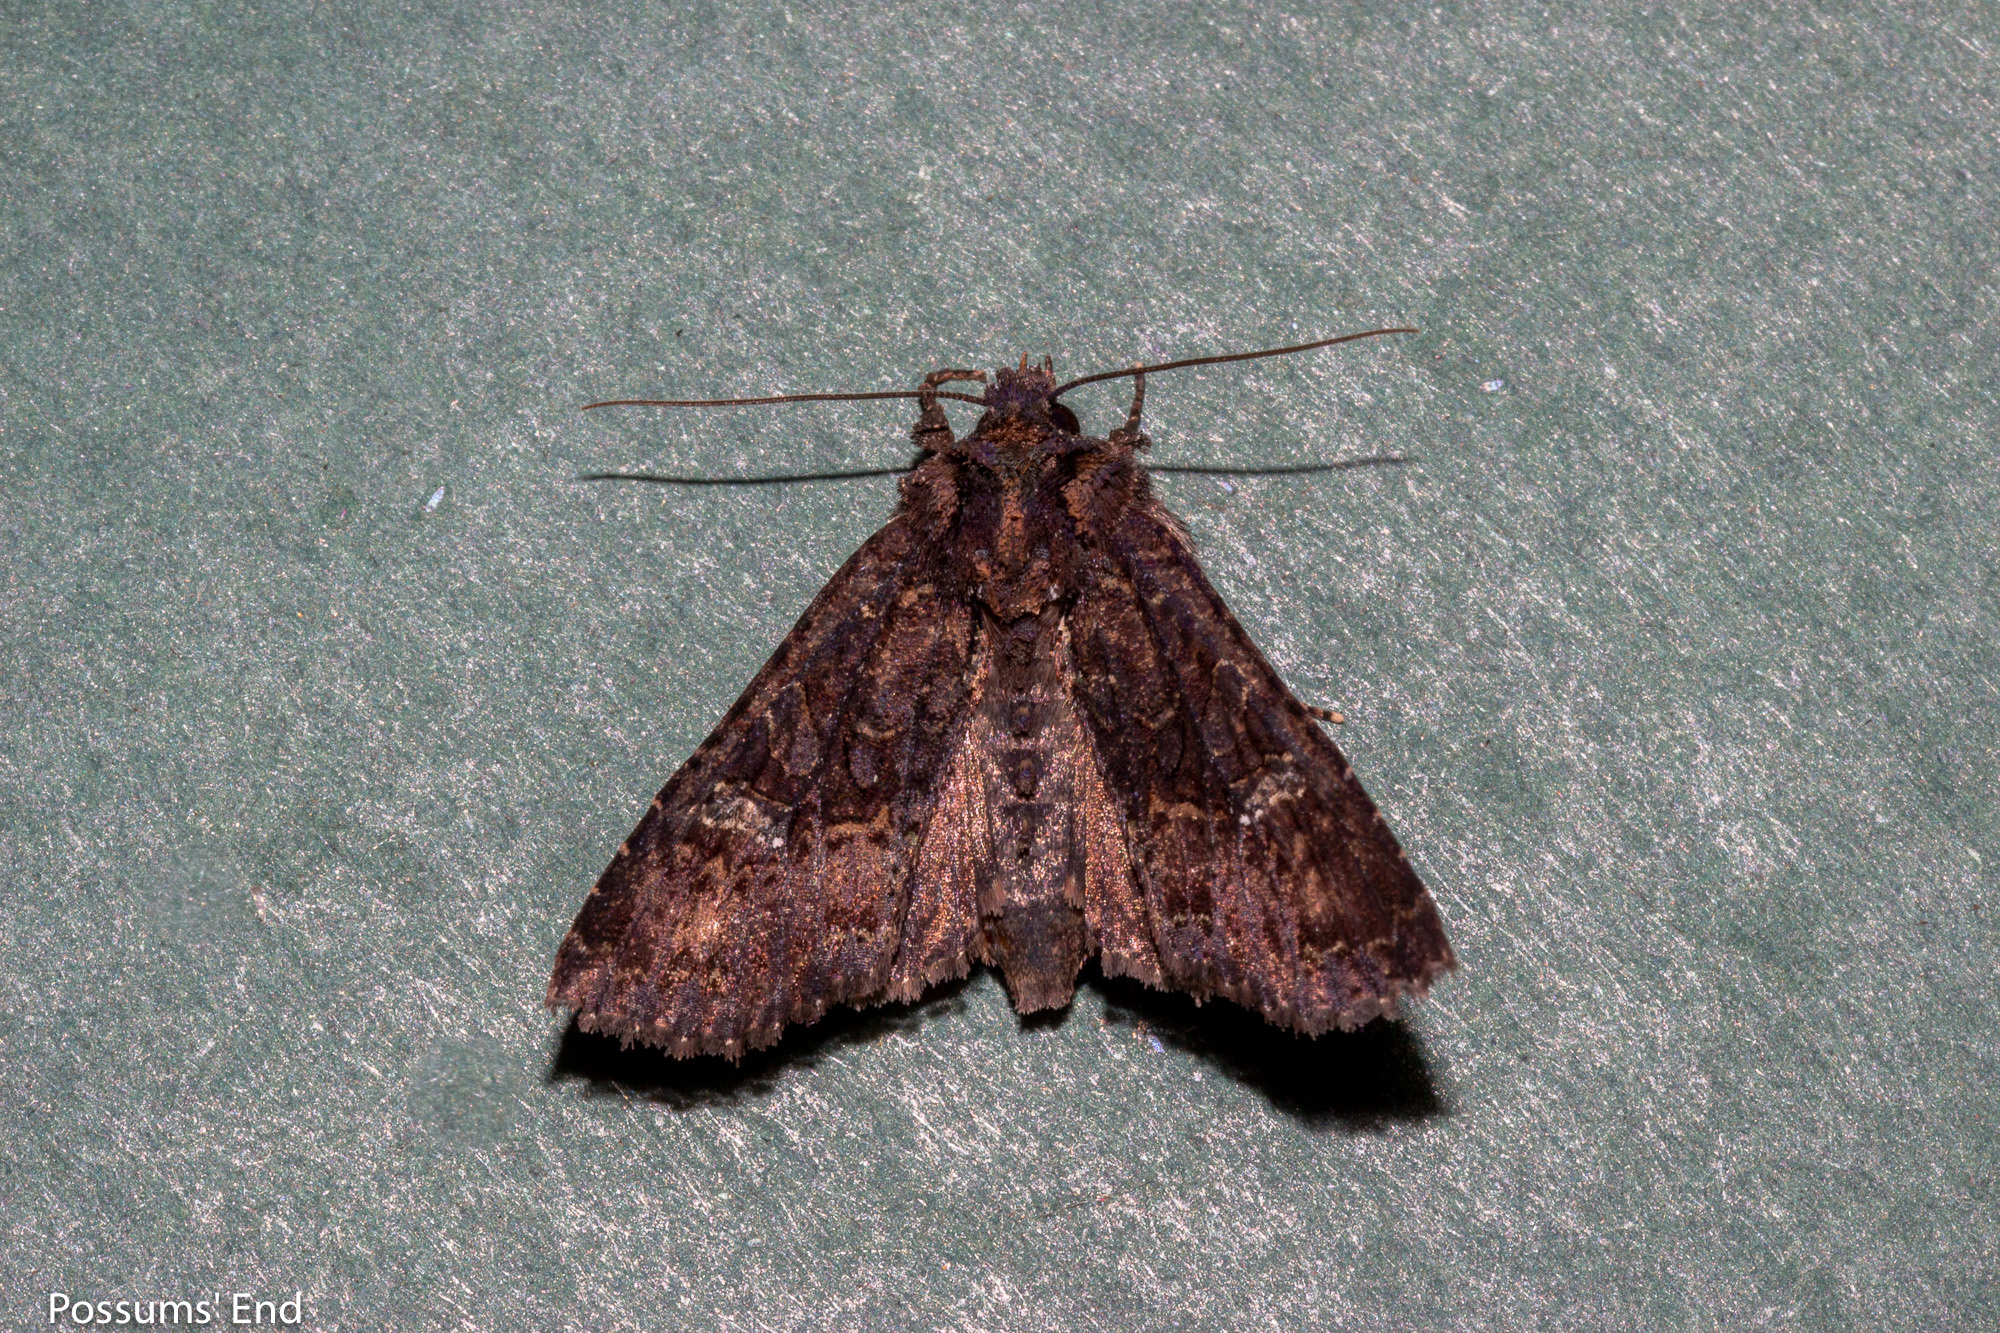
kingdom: Animalia
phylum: Arthropoda
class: Insecta
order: Lepidoptera
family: Noctuidae
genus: Meterana
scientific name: Meterana ochthistis
